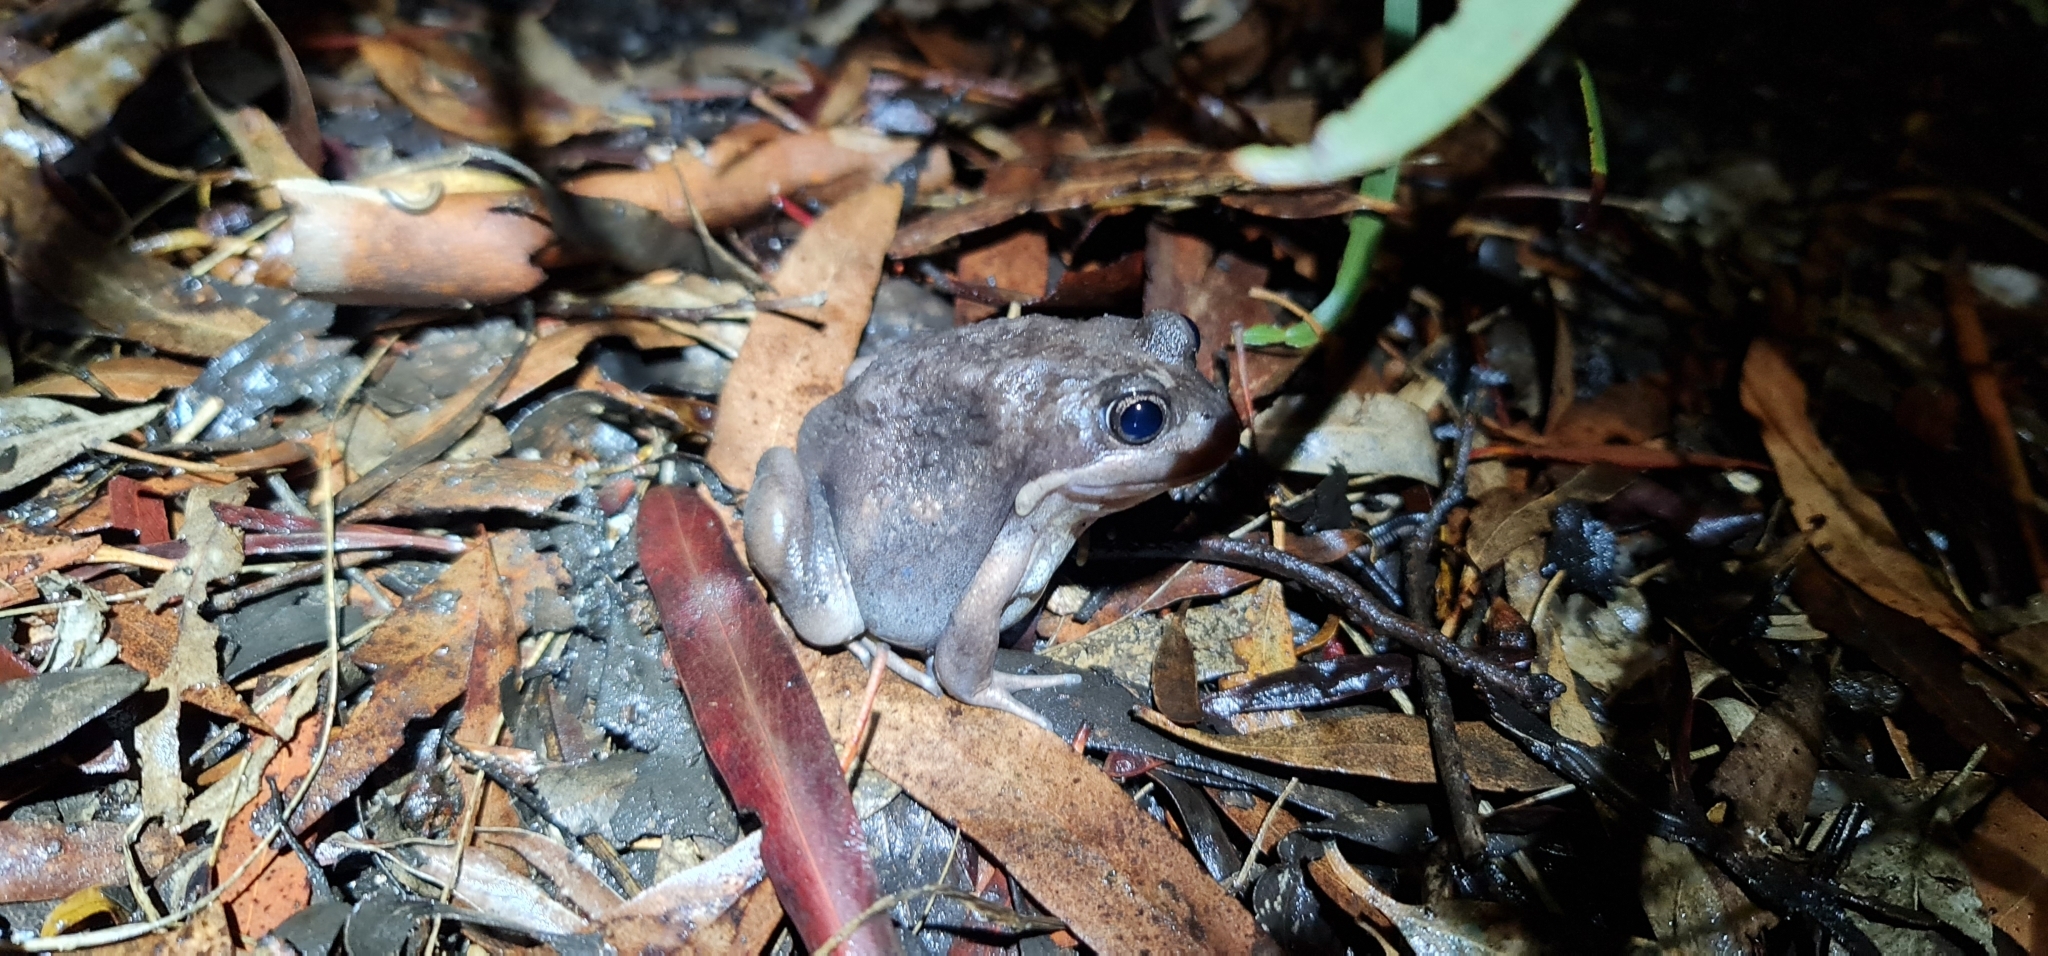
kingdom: Animalia
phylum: Chordata
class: Amphibia
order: Anura
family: Limnodynastidae
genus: Limnodynastes
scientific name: Limnodynastes dumerilii
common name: Banjo frog
